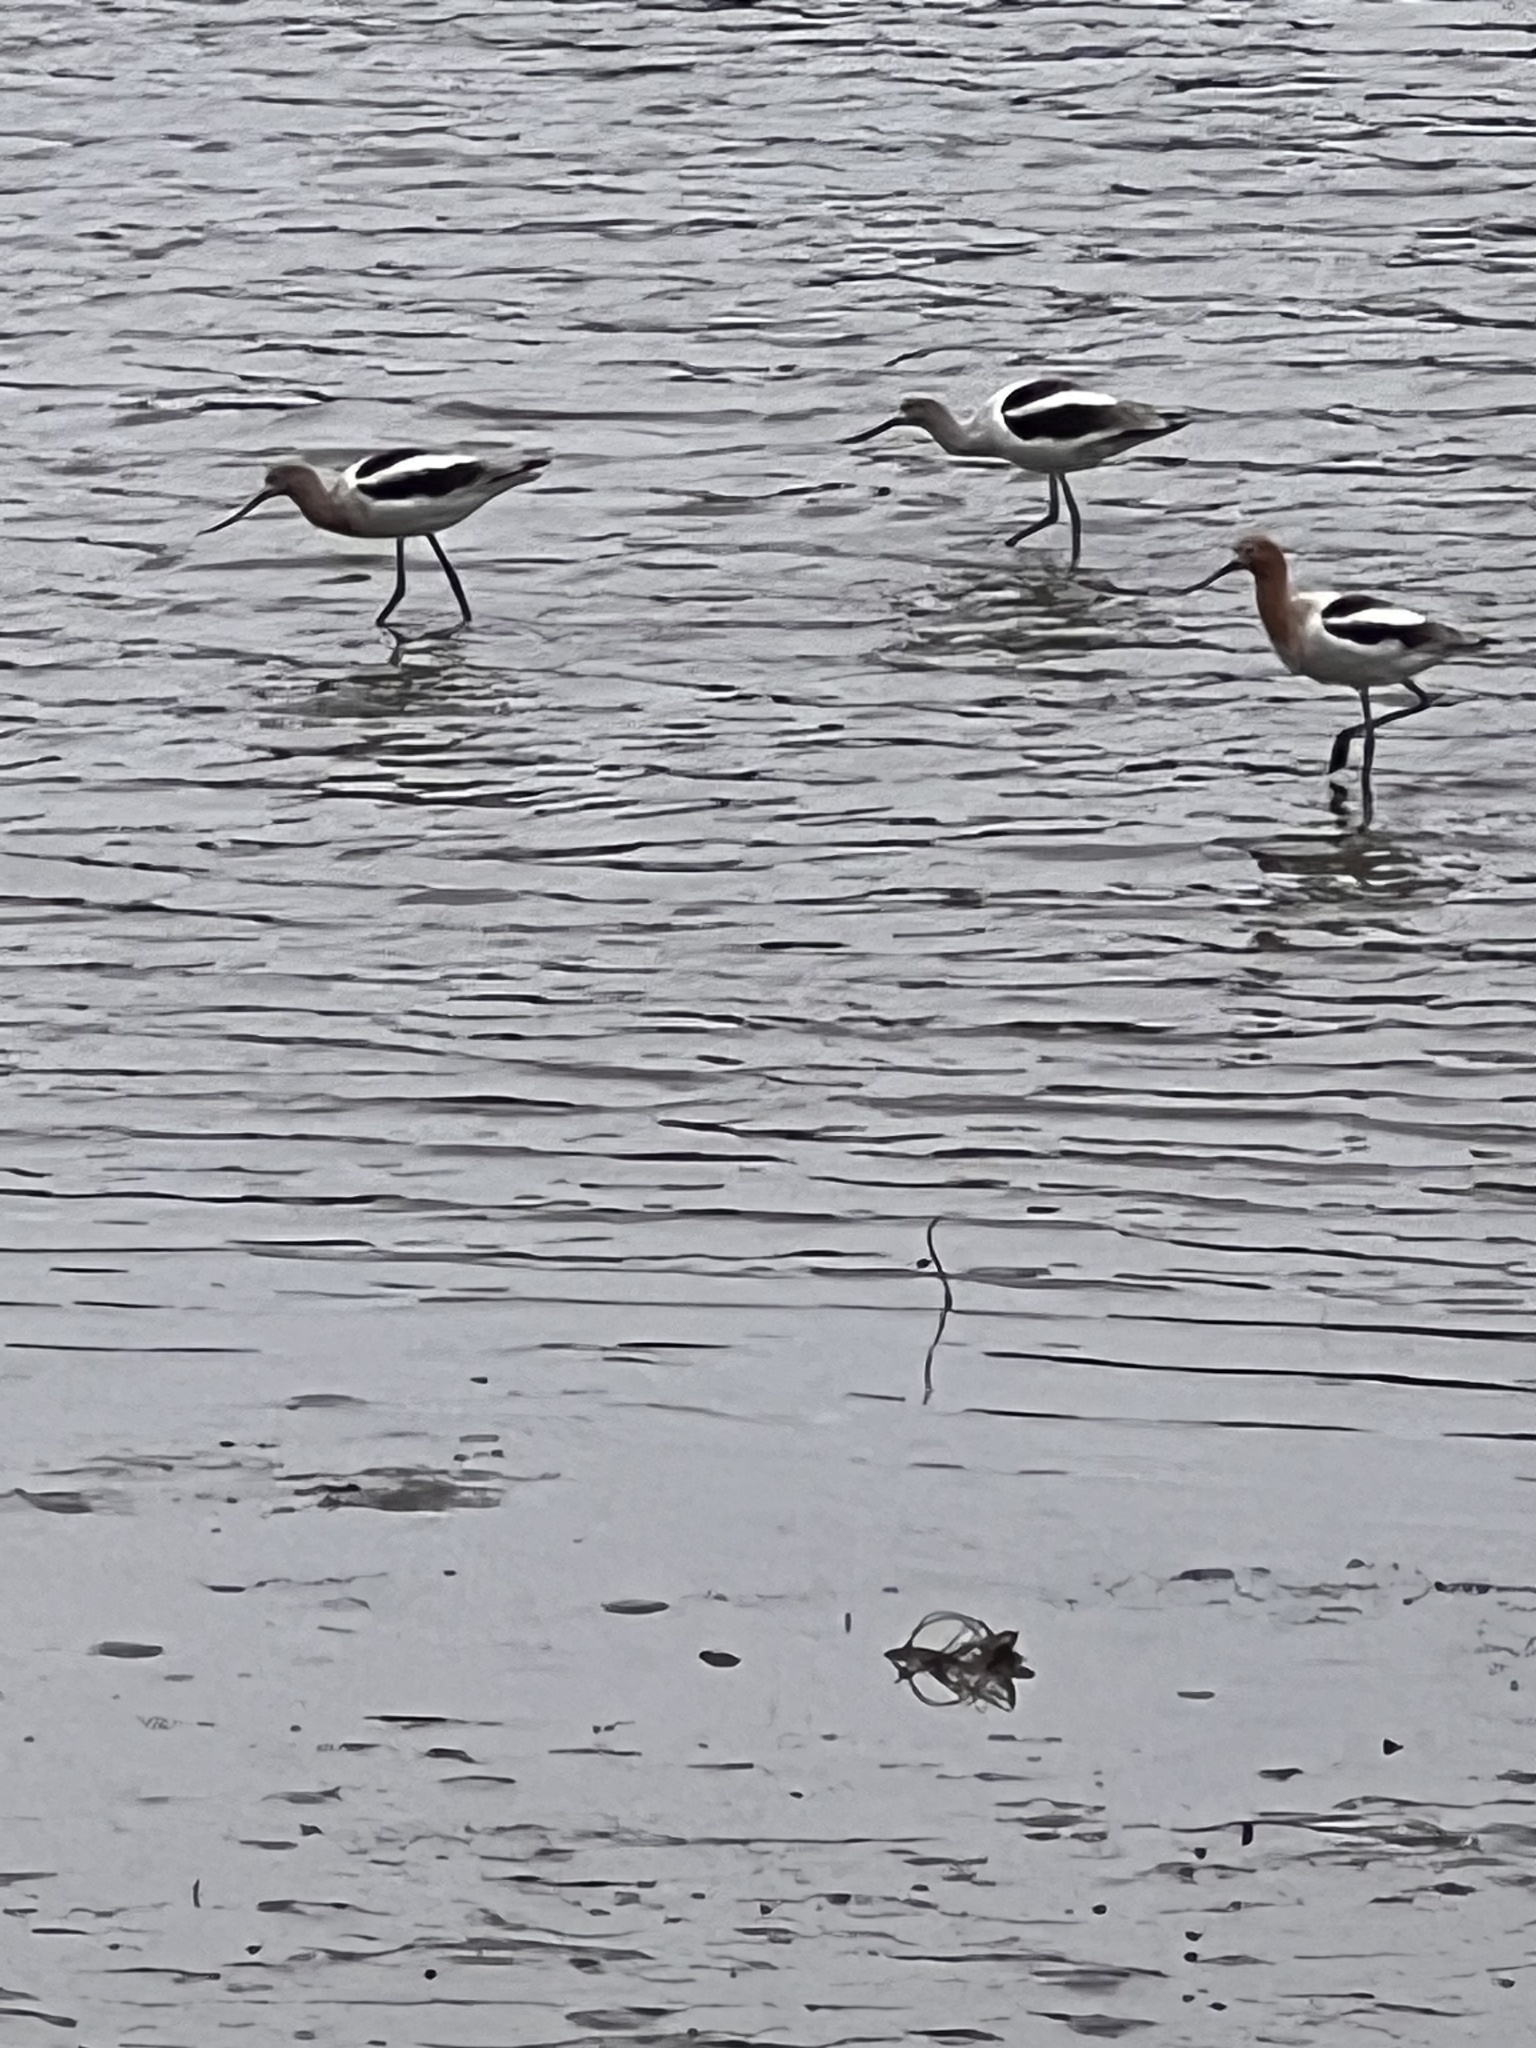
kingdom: Animalia
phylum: Chordata
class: Aves
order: Charadriiformes
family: Recurvirostridae
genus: Recurvirostra
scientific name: Recurvirostra americana
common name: American avocet
